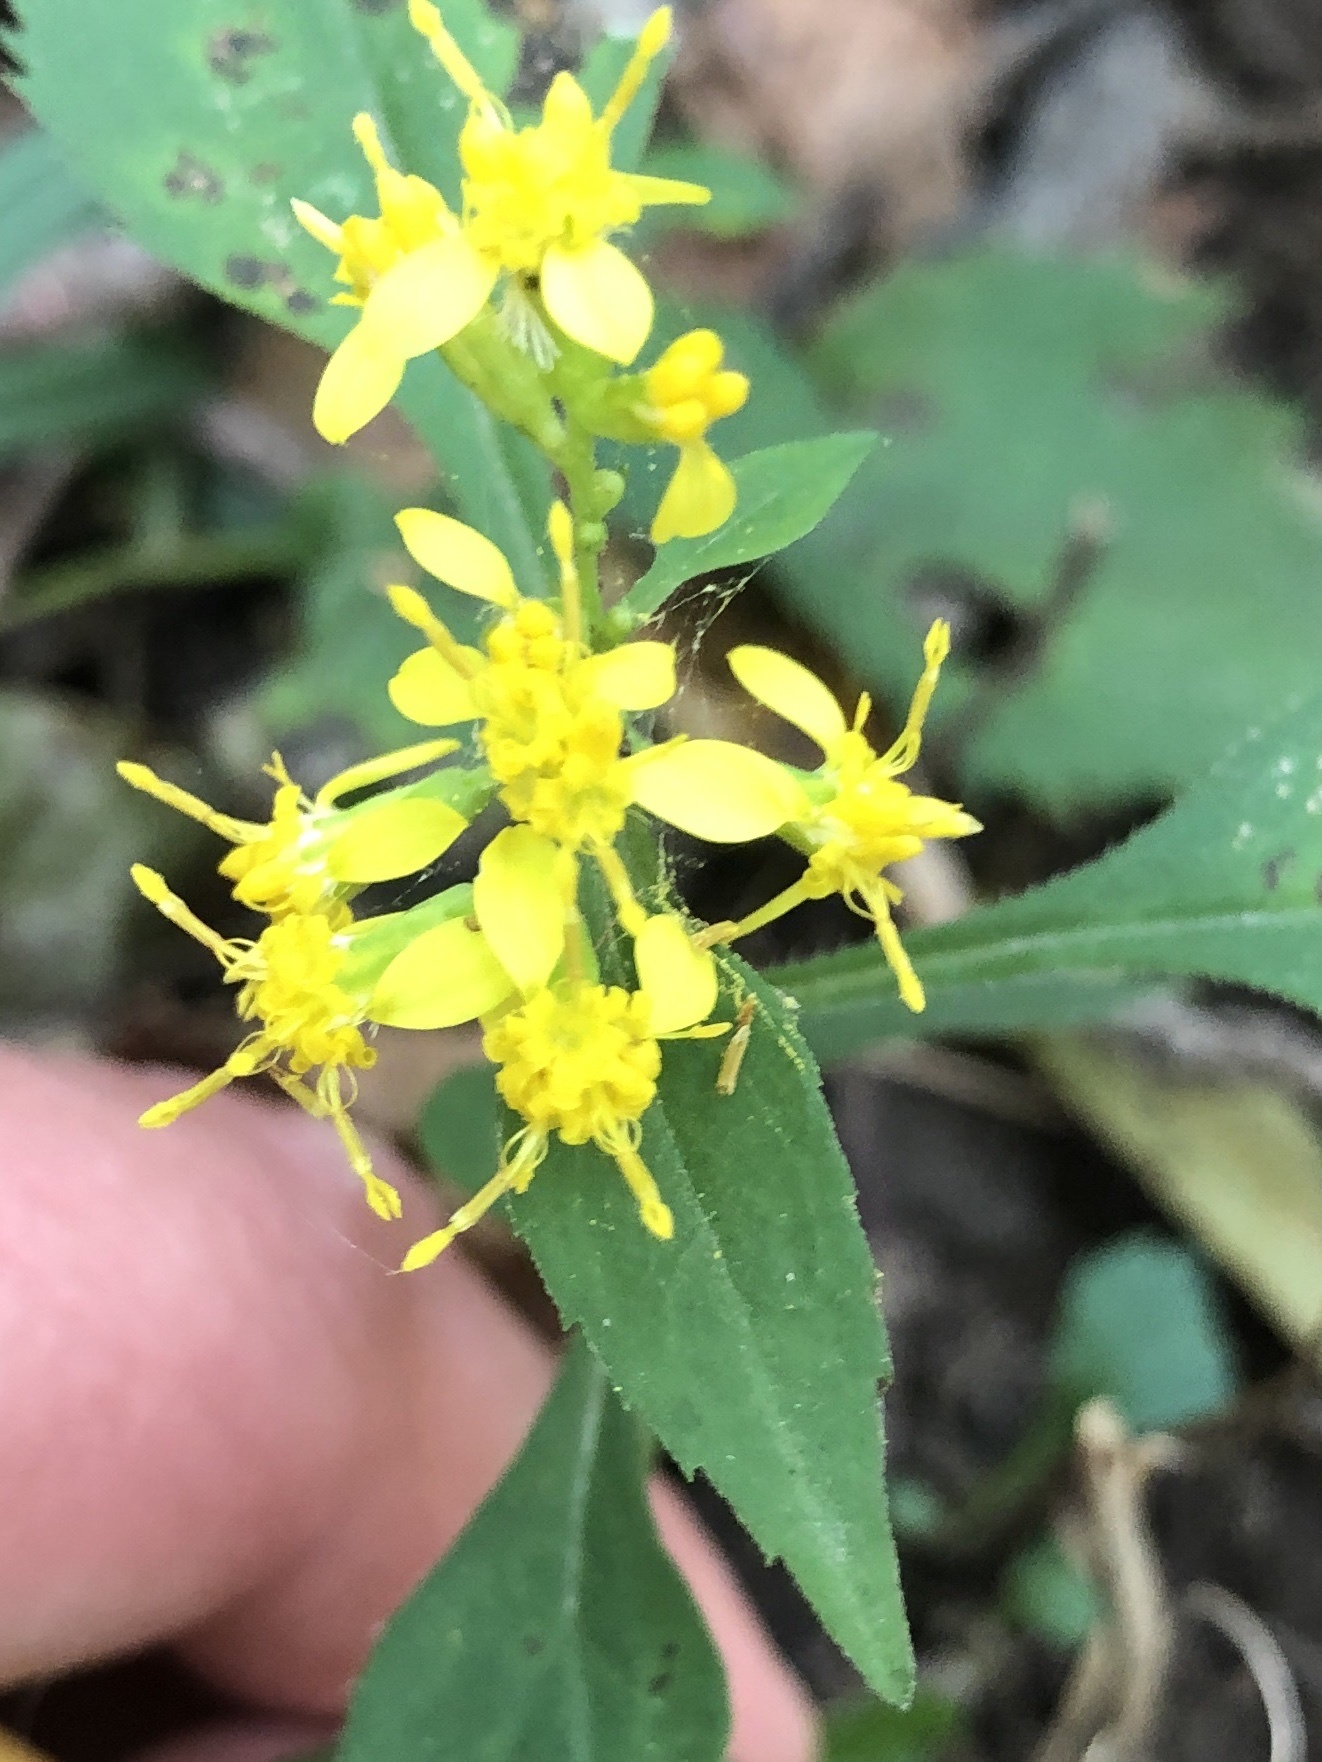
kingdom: Plantae
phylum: Tracheophyta
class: Magnoliopsida
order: Asterales
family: Asteraceae
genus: Solidago
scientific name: Solidago flexicaulis
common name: Zig-zag goldenrod
